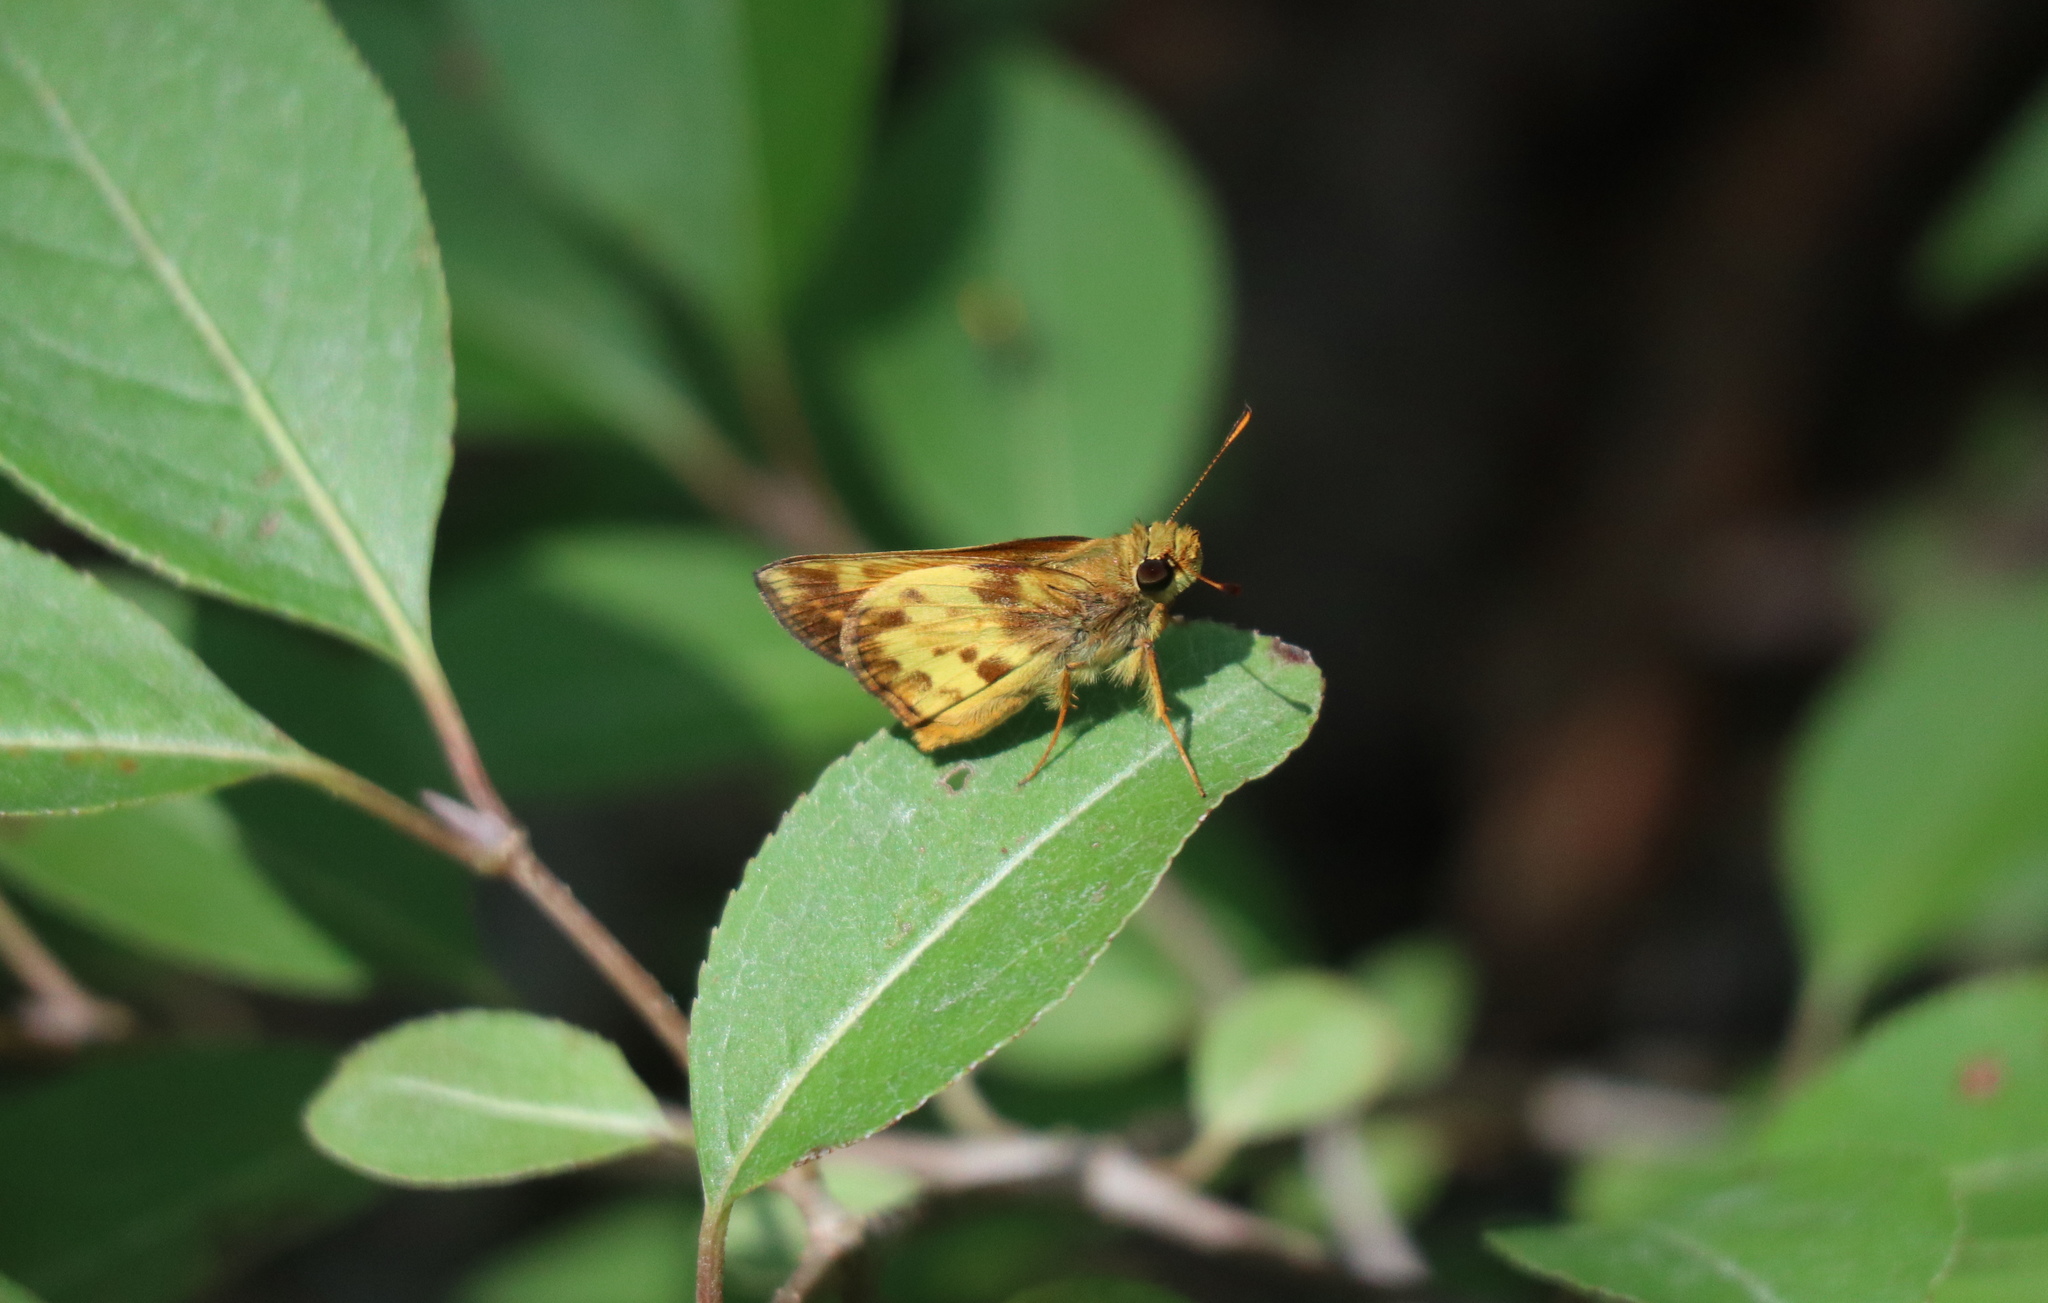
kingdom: Animalia
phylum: Arthropoda
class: Insecta
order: Lepidoptera
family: Hesperiidae
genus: Lon
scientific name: Lon zabulon
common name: Zabulon skipper
